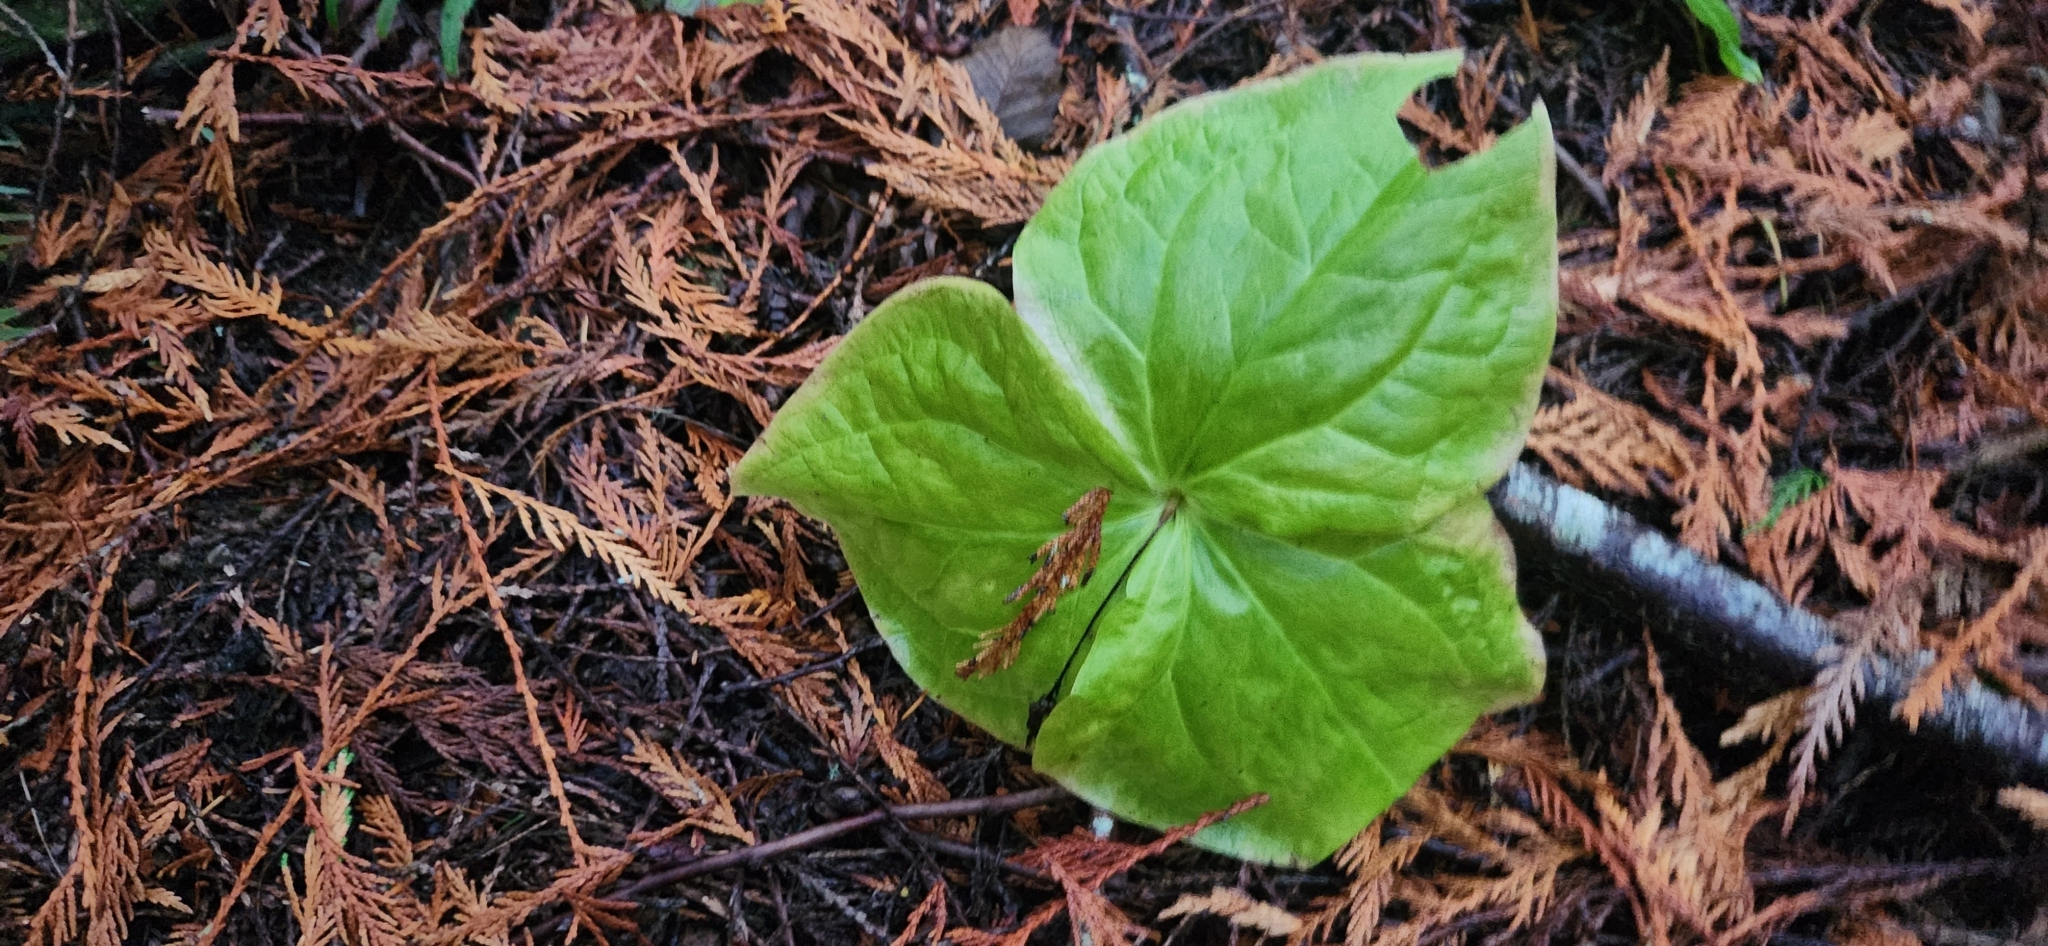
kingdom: Plantae
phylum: Tracheophyta
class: Liliopsida
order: Liliales
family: Melanthiaceae
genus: Trillium
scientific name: Trillium ovatum
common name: Pacific trillium
